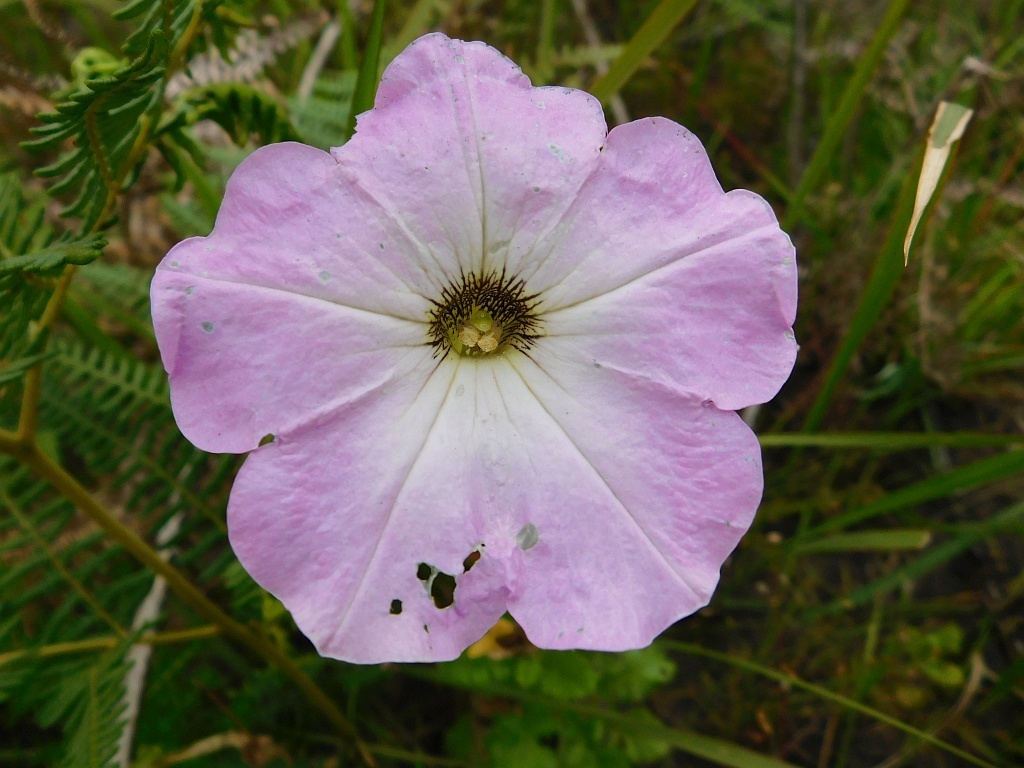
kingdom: Plantae
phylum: Tracheophyta
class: Magnoliopsida
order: Solanales
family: Solanaceae
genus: Petunia
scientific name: Petunia atkinsiana
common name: Petunia
